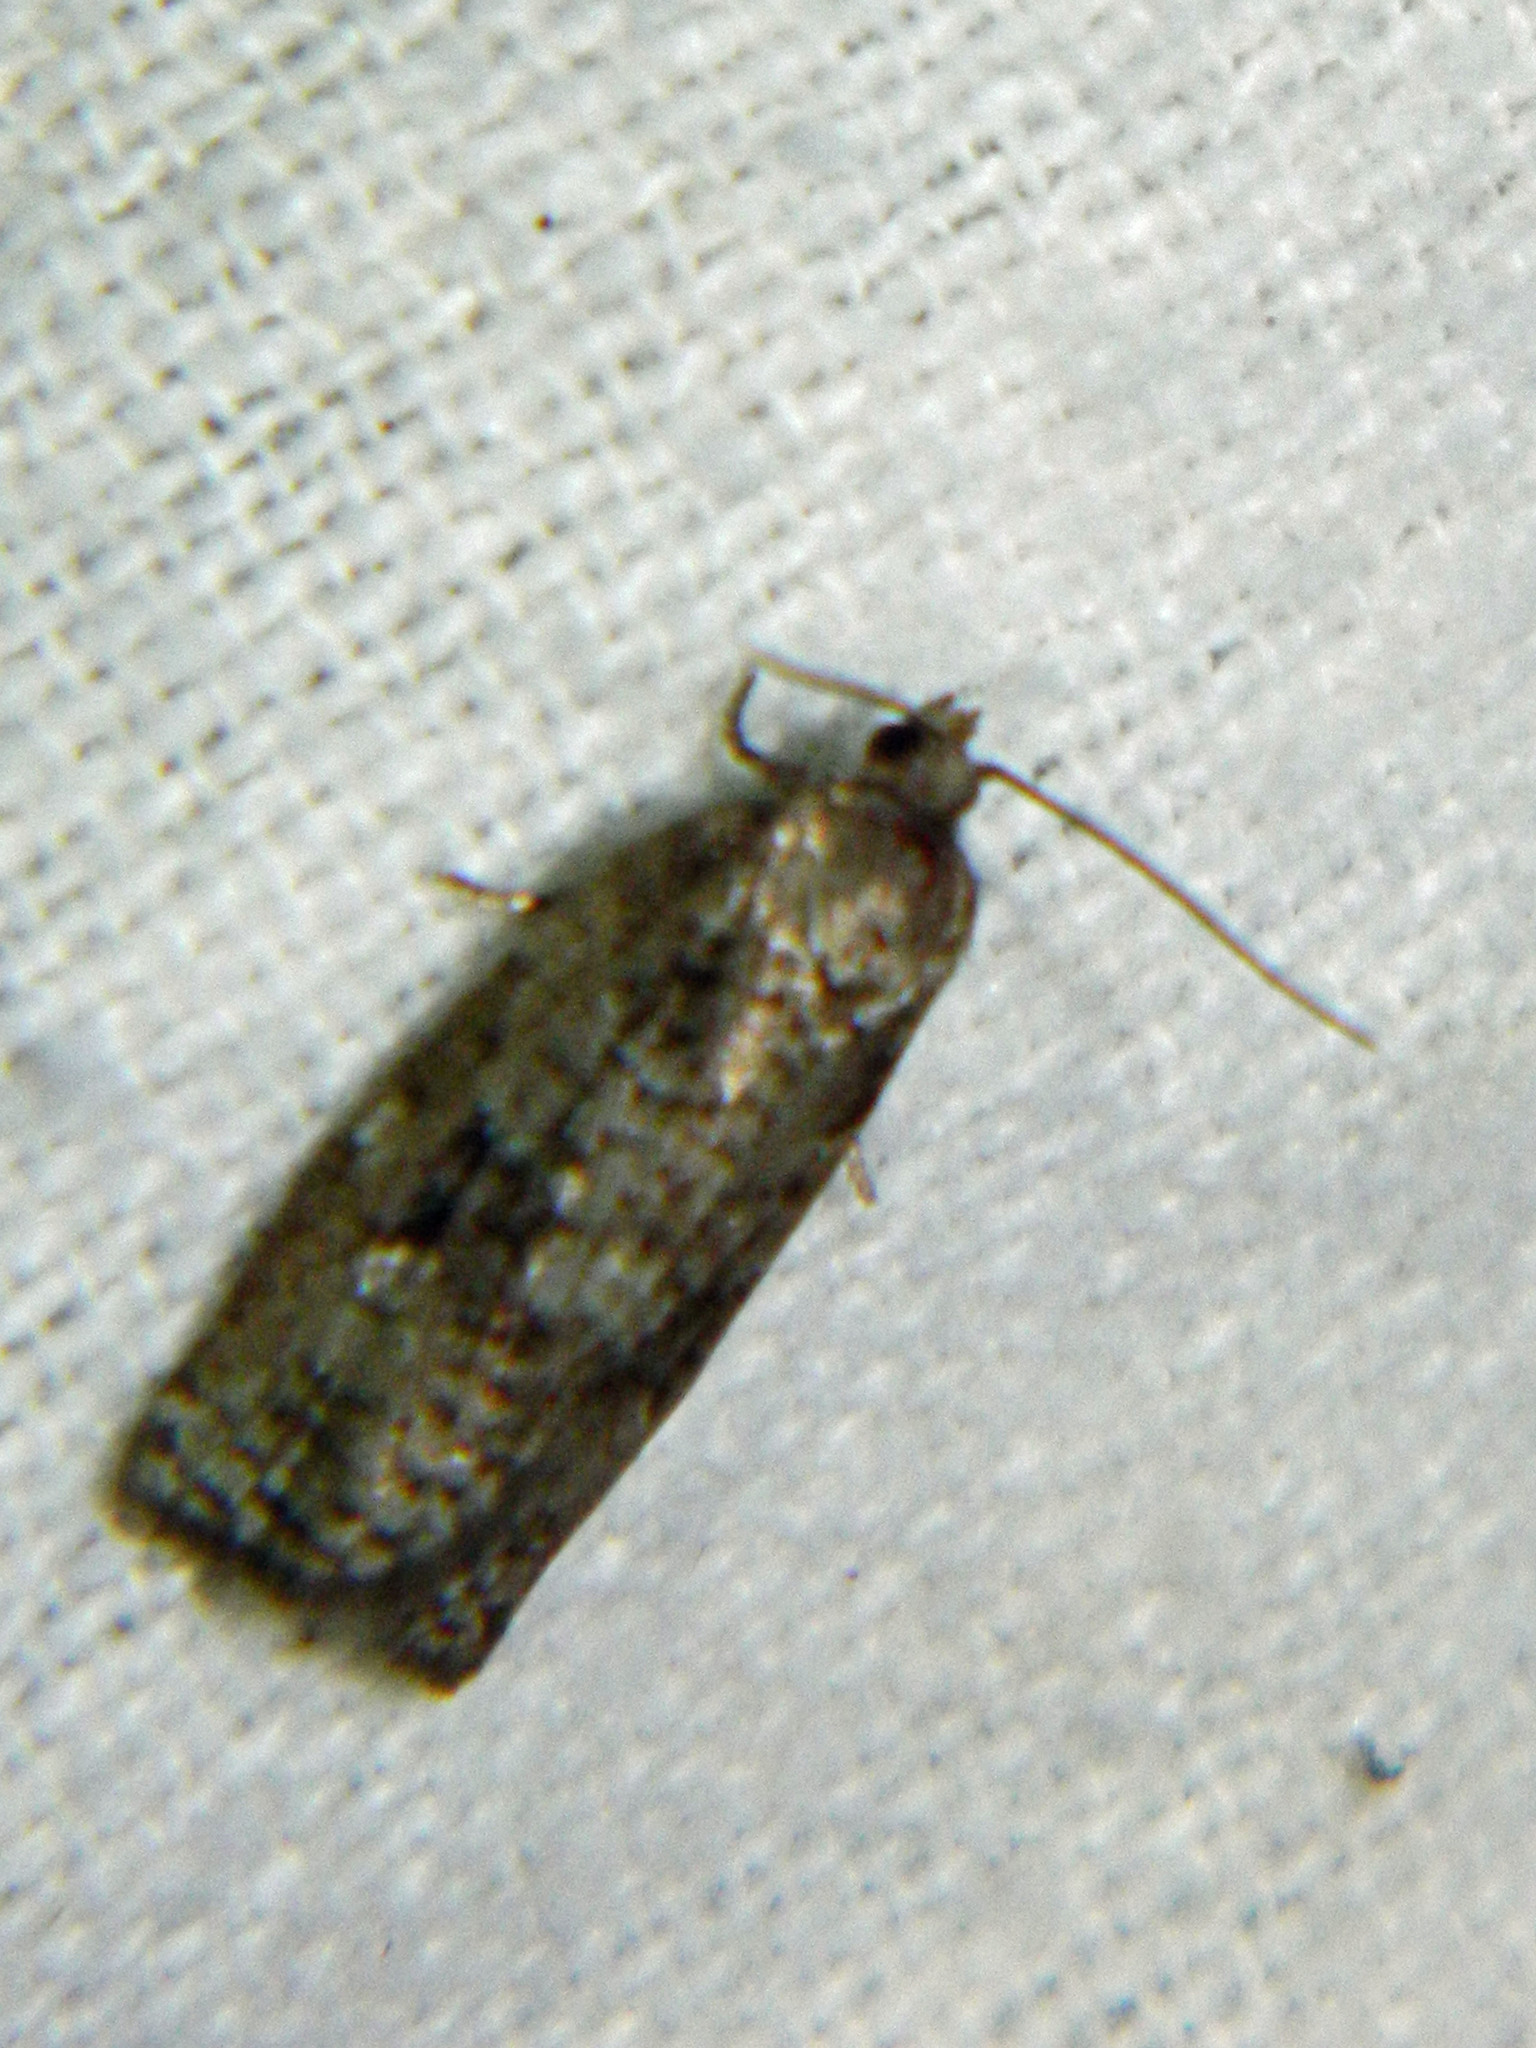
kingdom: Animalia
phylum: Arthropoda
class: Insecta
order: Lepidoptera
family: Tortricidae
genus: Choristoneura
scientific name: Choristoneura fumiferana
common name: Spruce budworm
